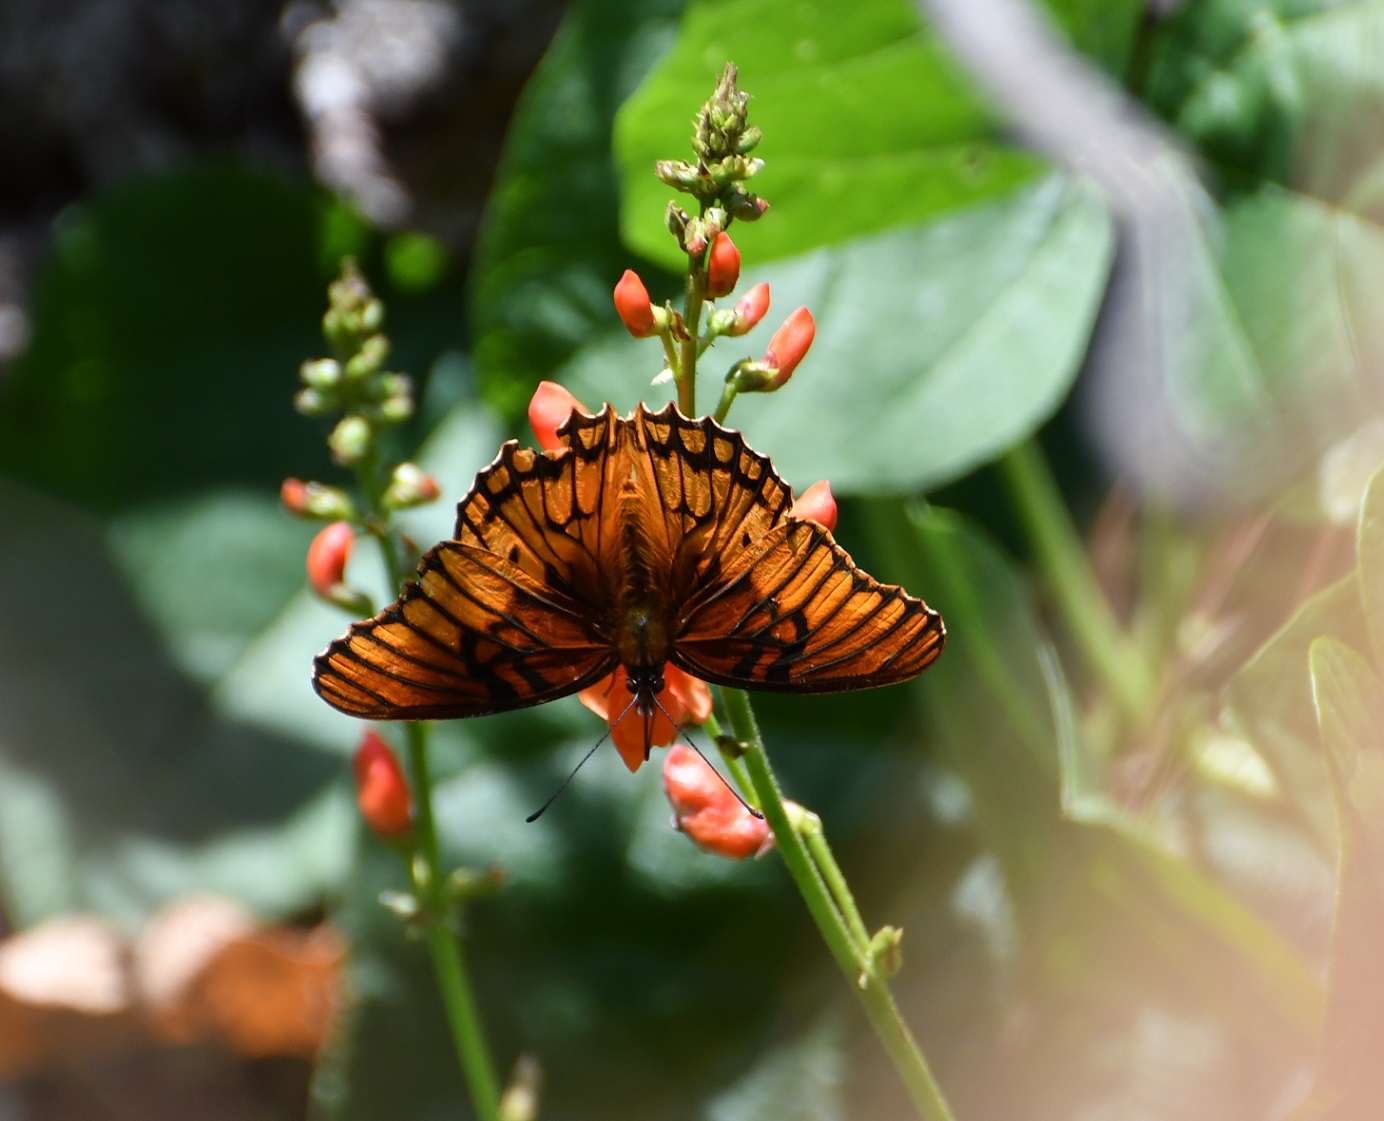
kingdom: Animalia
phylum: Arthropoda
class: Insecta
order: Lepidoptera
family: Nymphalidae
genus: Dione
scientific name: Dione moneta
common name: Mexican silverspot
